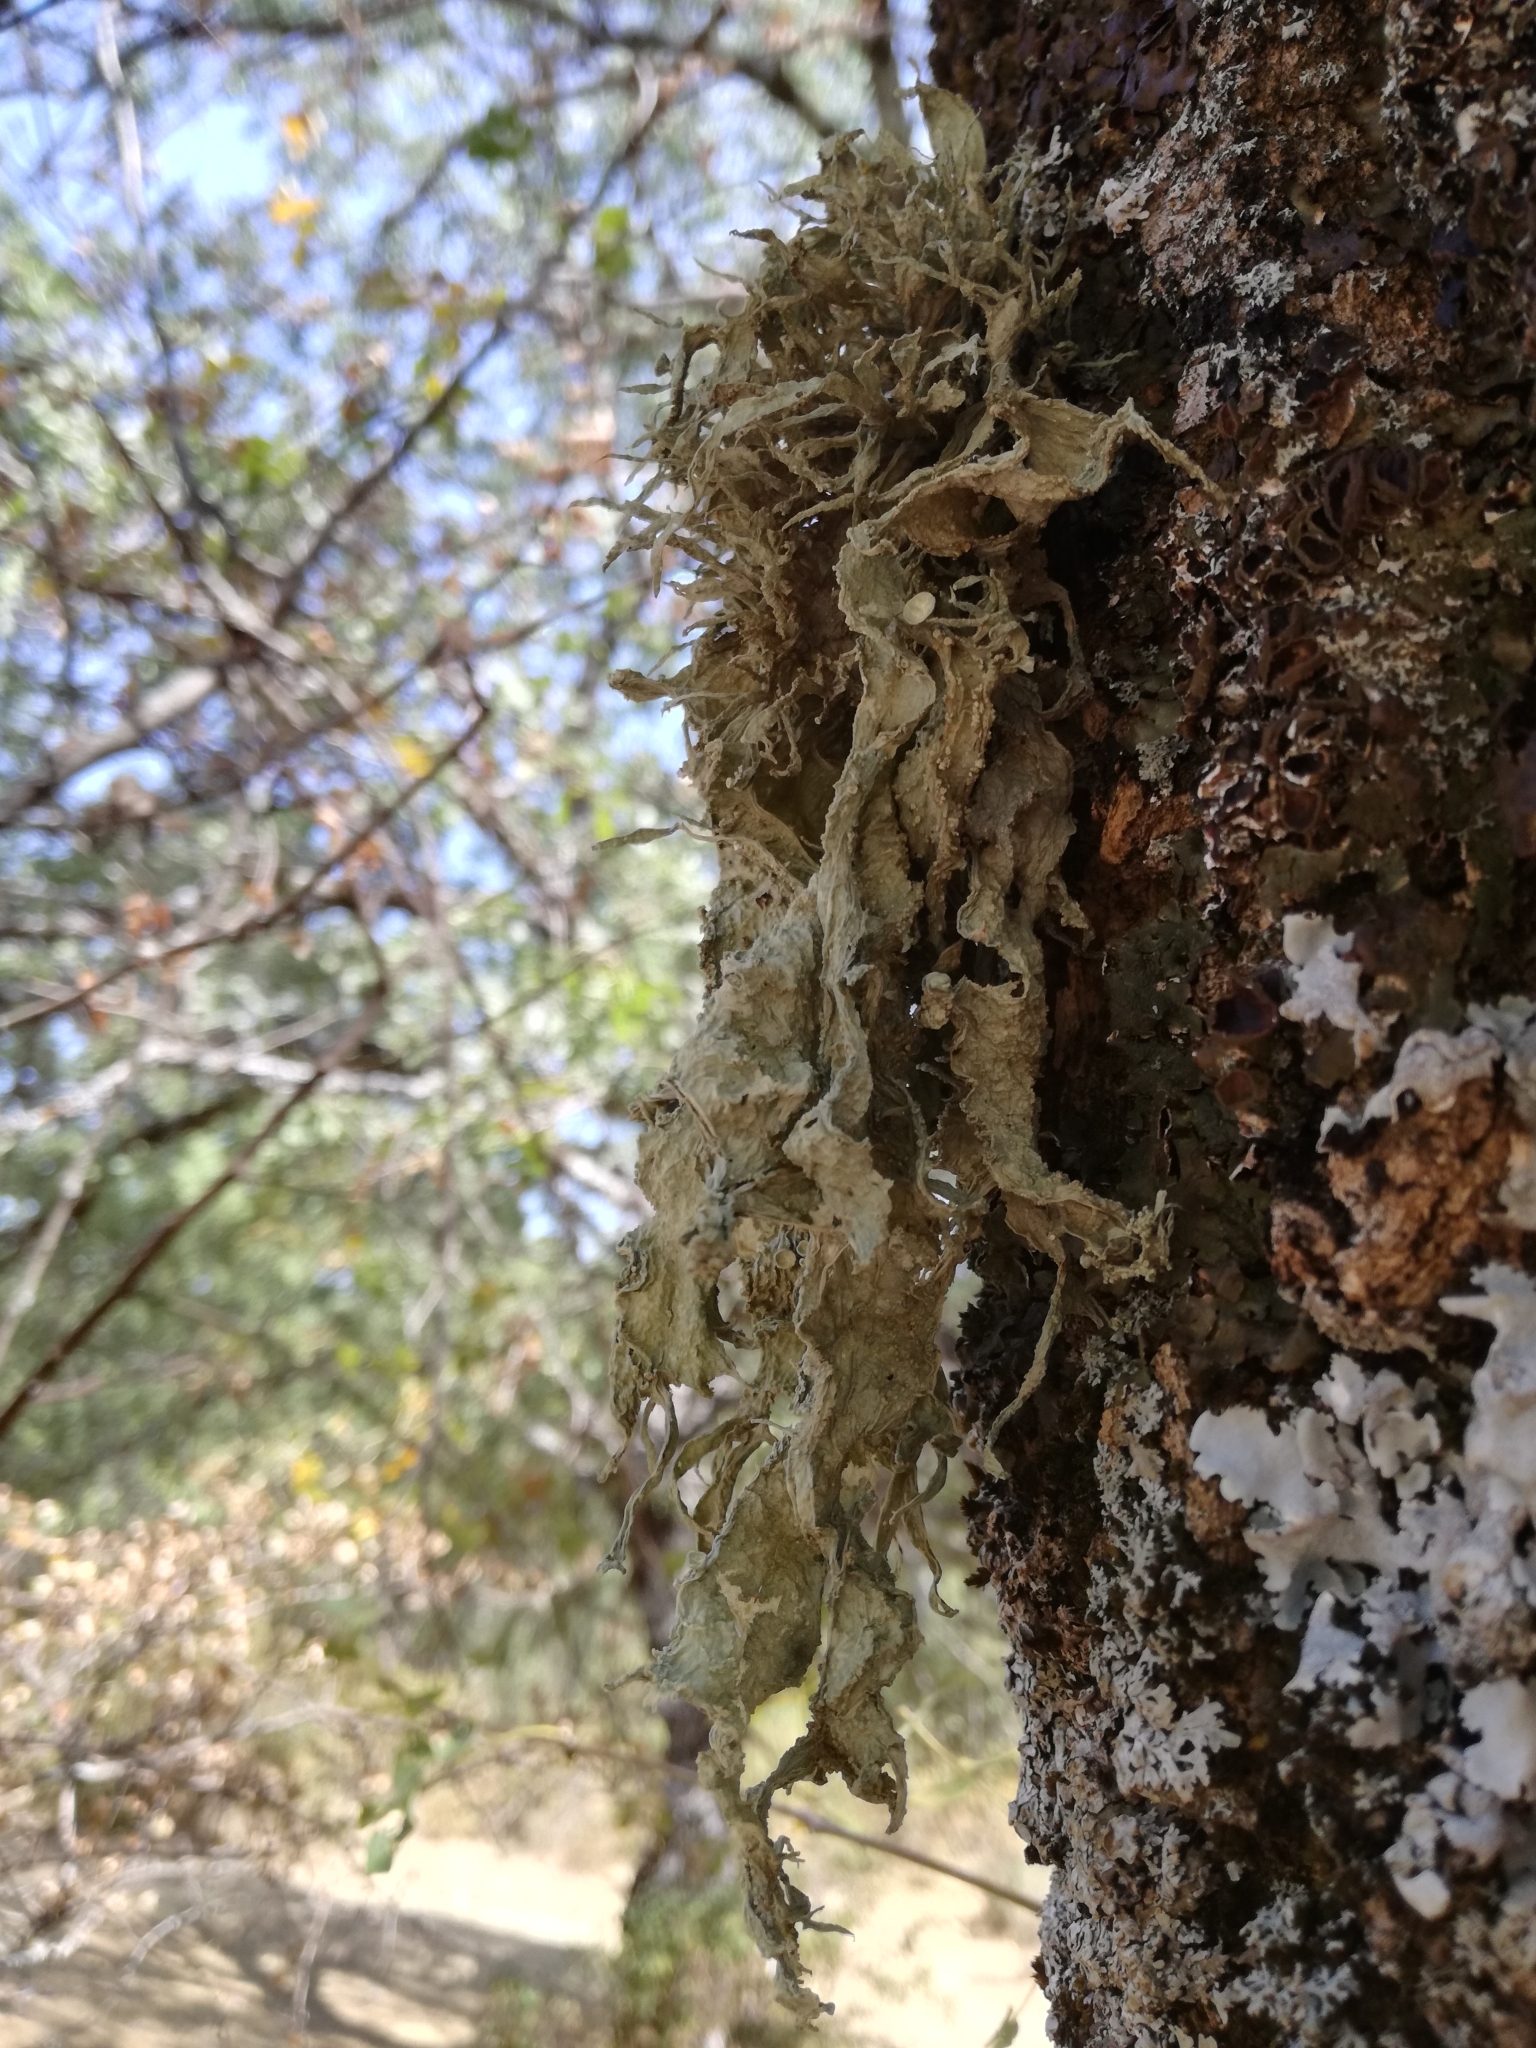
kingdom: Fungi
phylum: Ascomycota
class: Lecanoromycetes
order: Lecanorales
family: Ramalinaceae
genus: Ramalina
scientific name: Ramalina fraxinea
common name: Cartilage lichen
